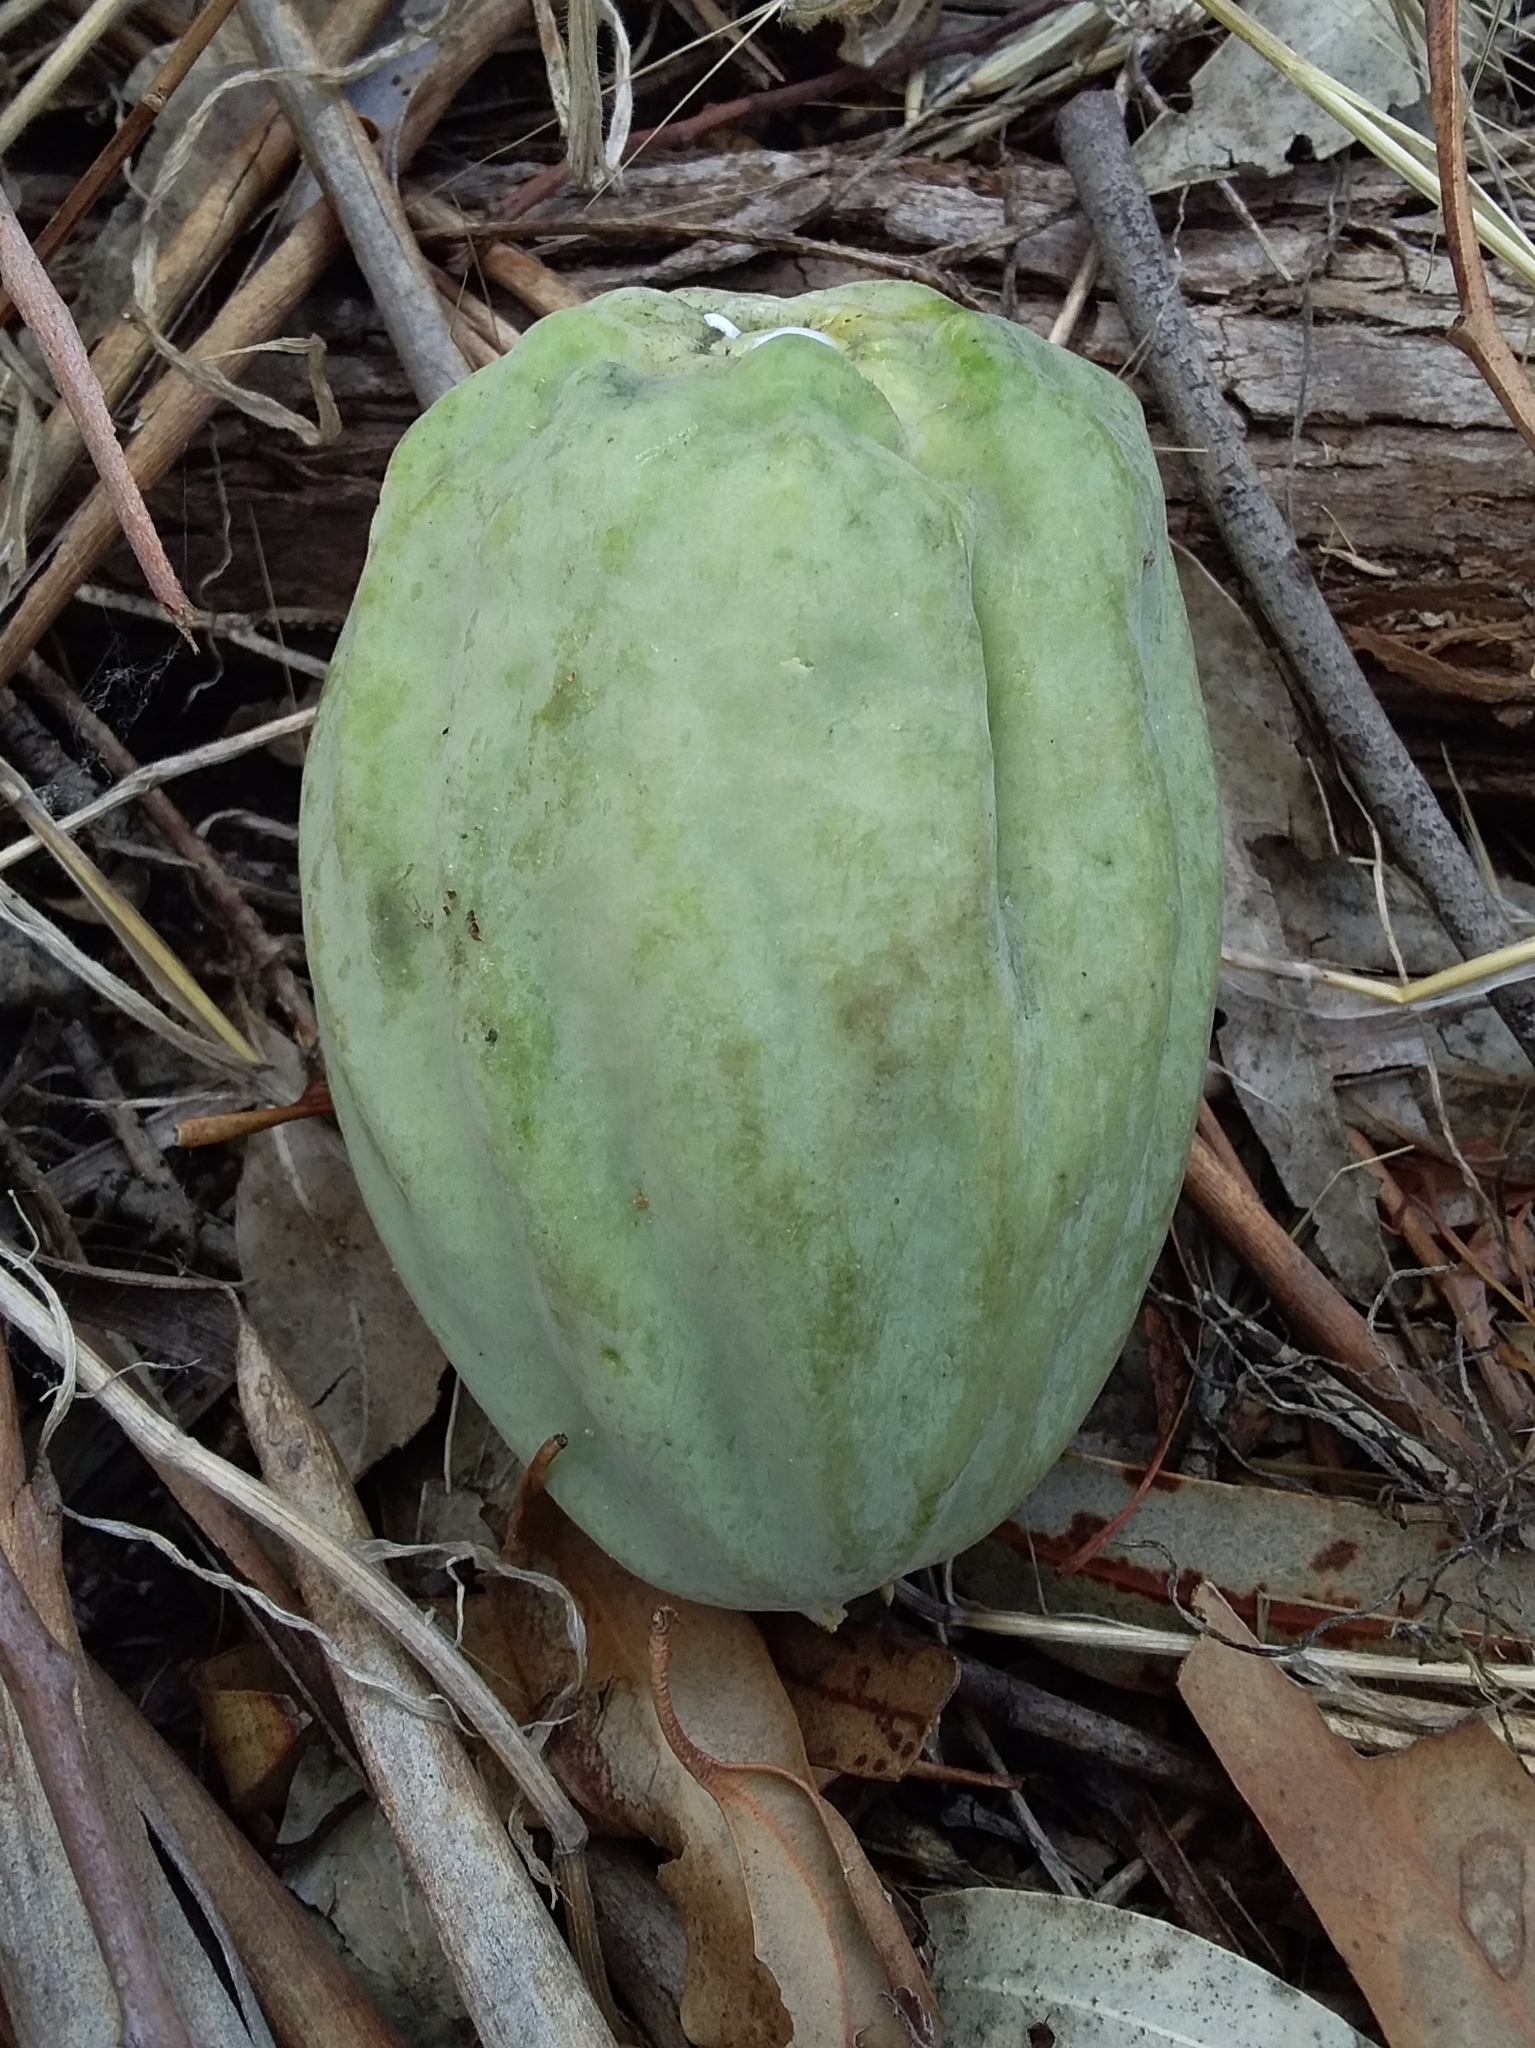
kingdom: Plantae
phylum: Tracheophyta
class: Magnoliopsida
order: Gentianales
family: Apocynaceae
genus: Araujia
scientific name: Araujia sericifera
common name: White bladderflower
